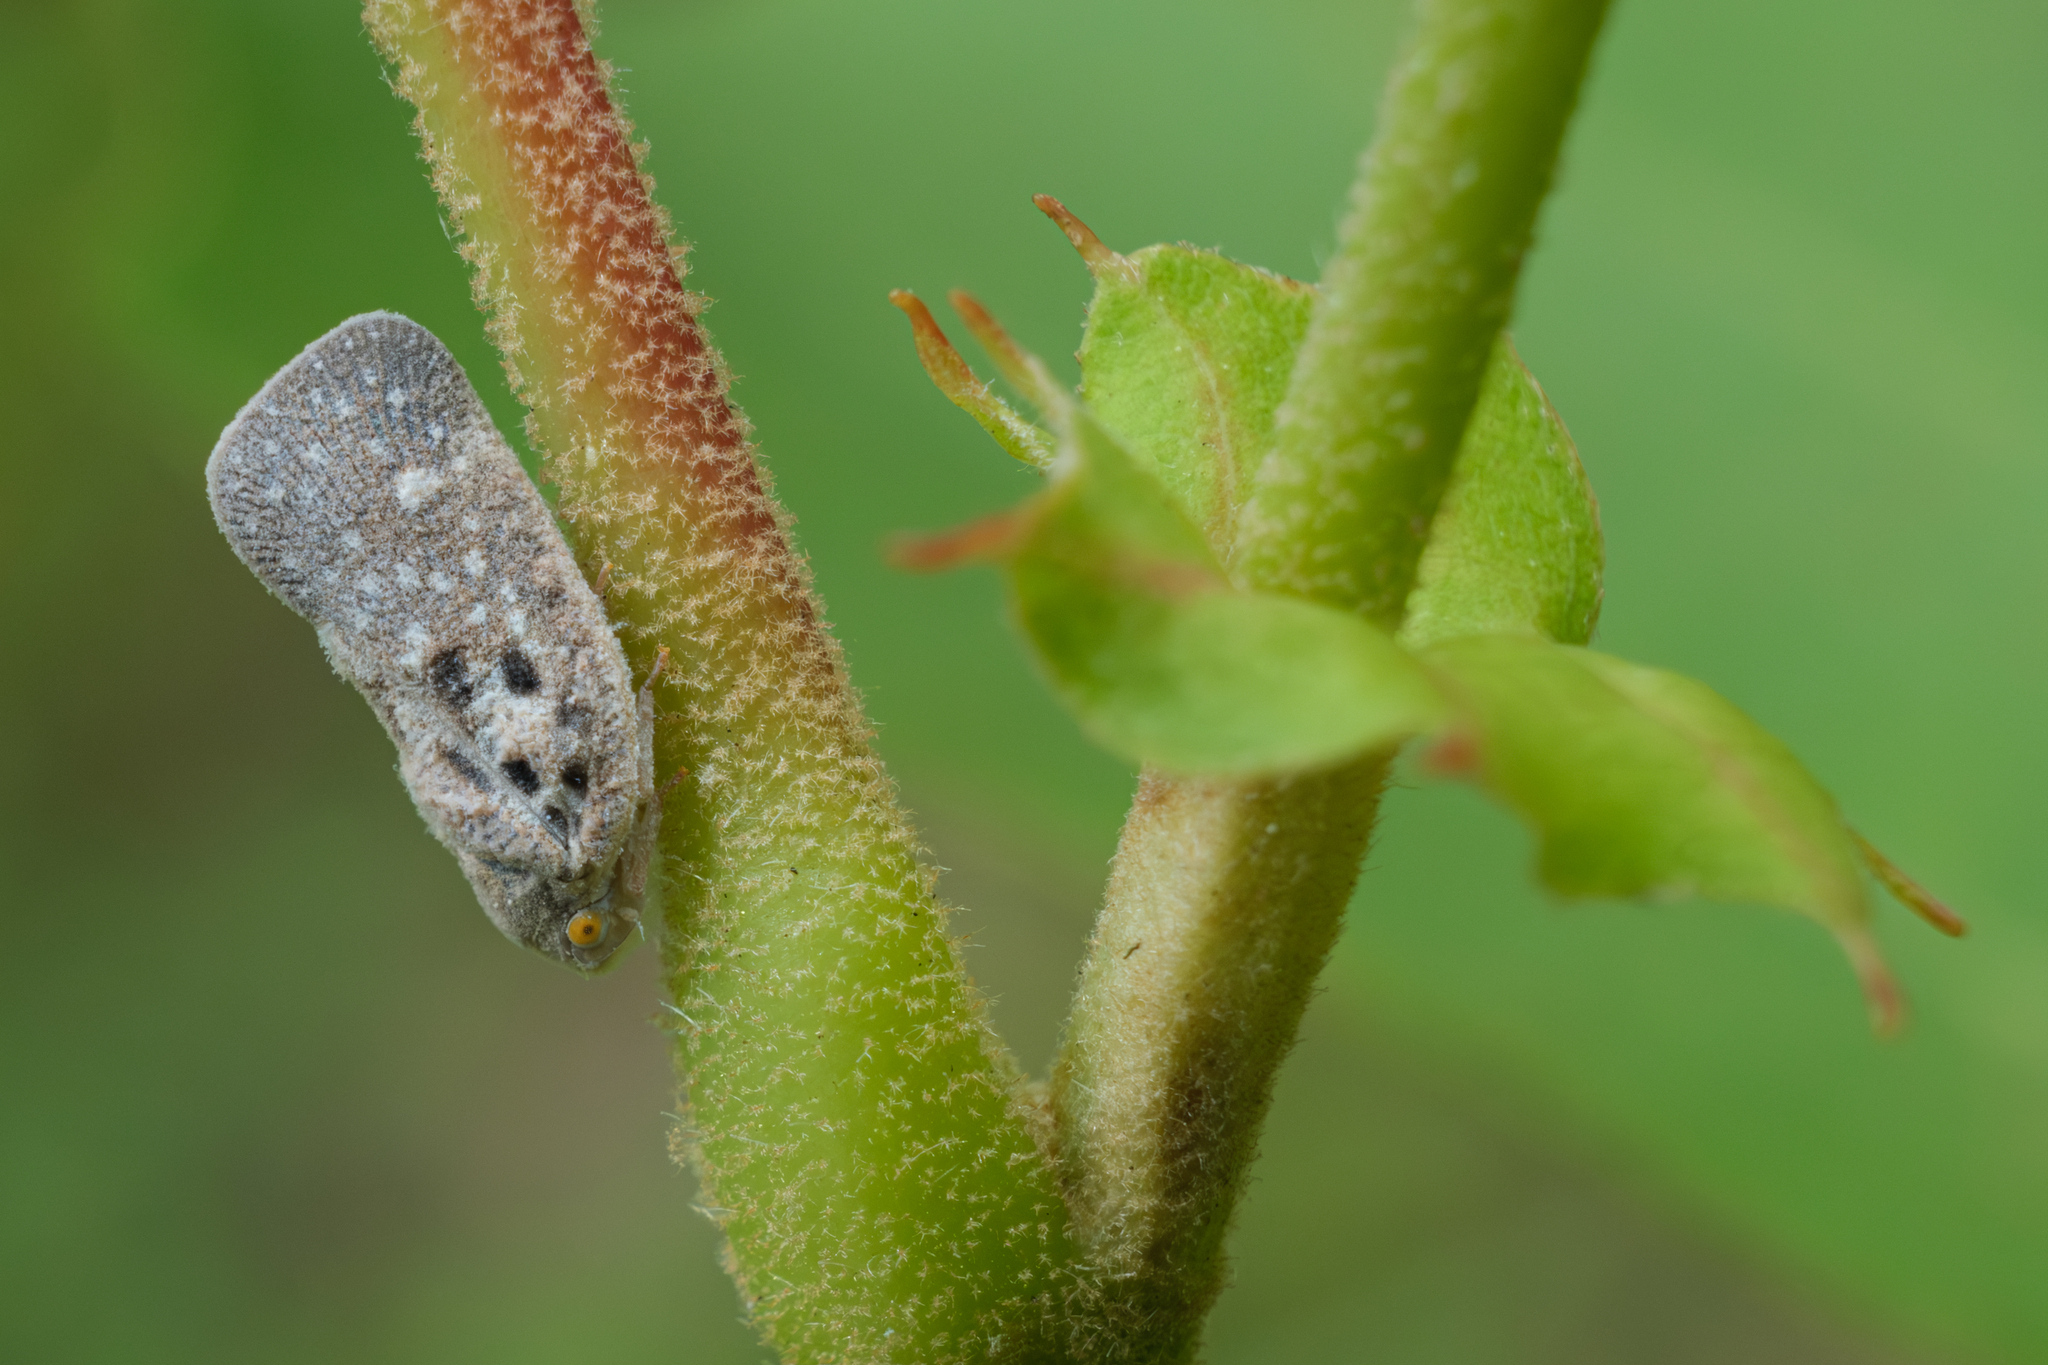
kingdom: Animalia
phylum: Arthropoda
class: Insecta
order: Hemiptera
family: Flatidae
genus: Metcalfa
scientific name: Metcalfa pruinosa
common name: Citrus flatid planthopper
